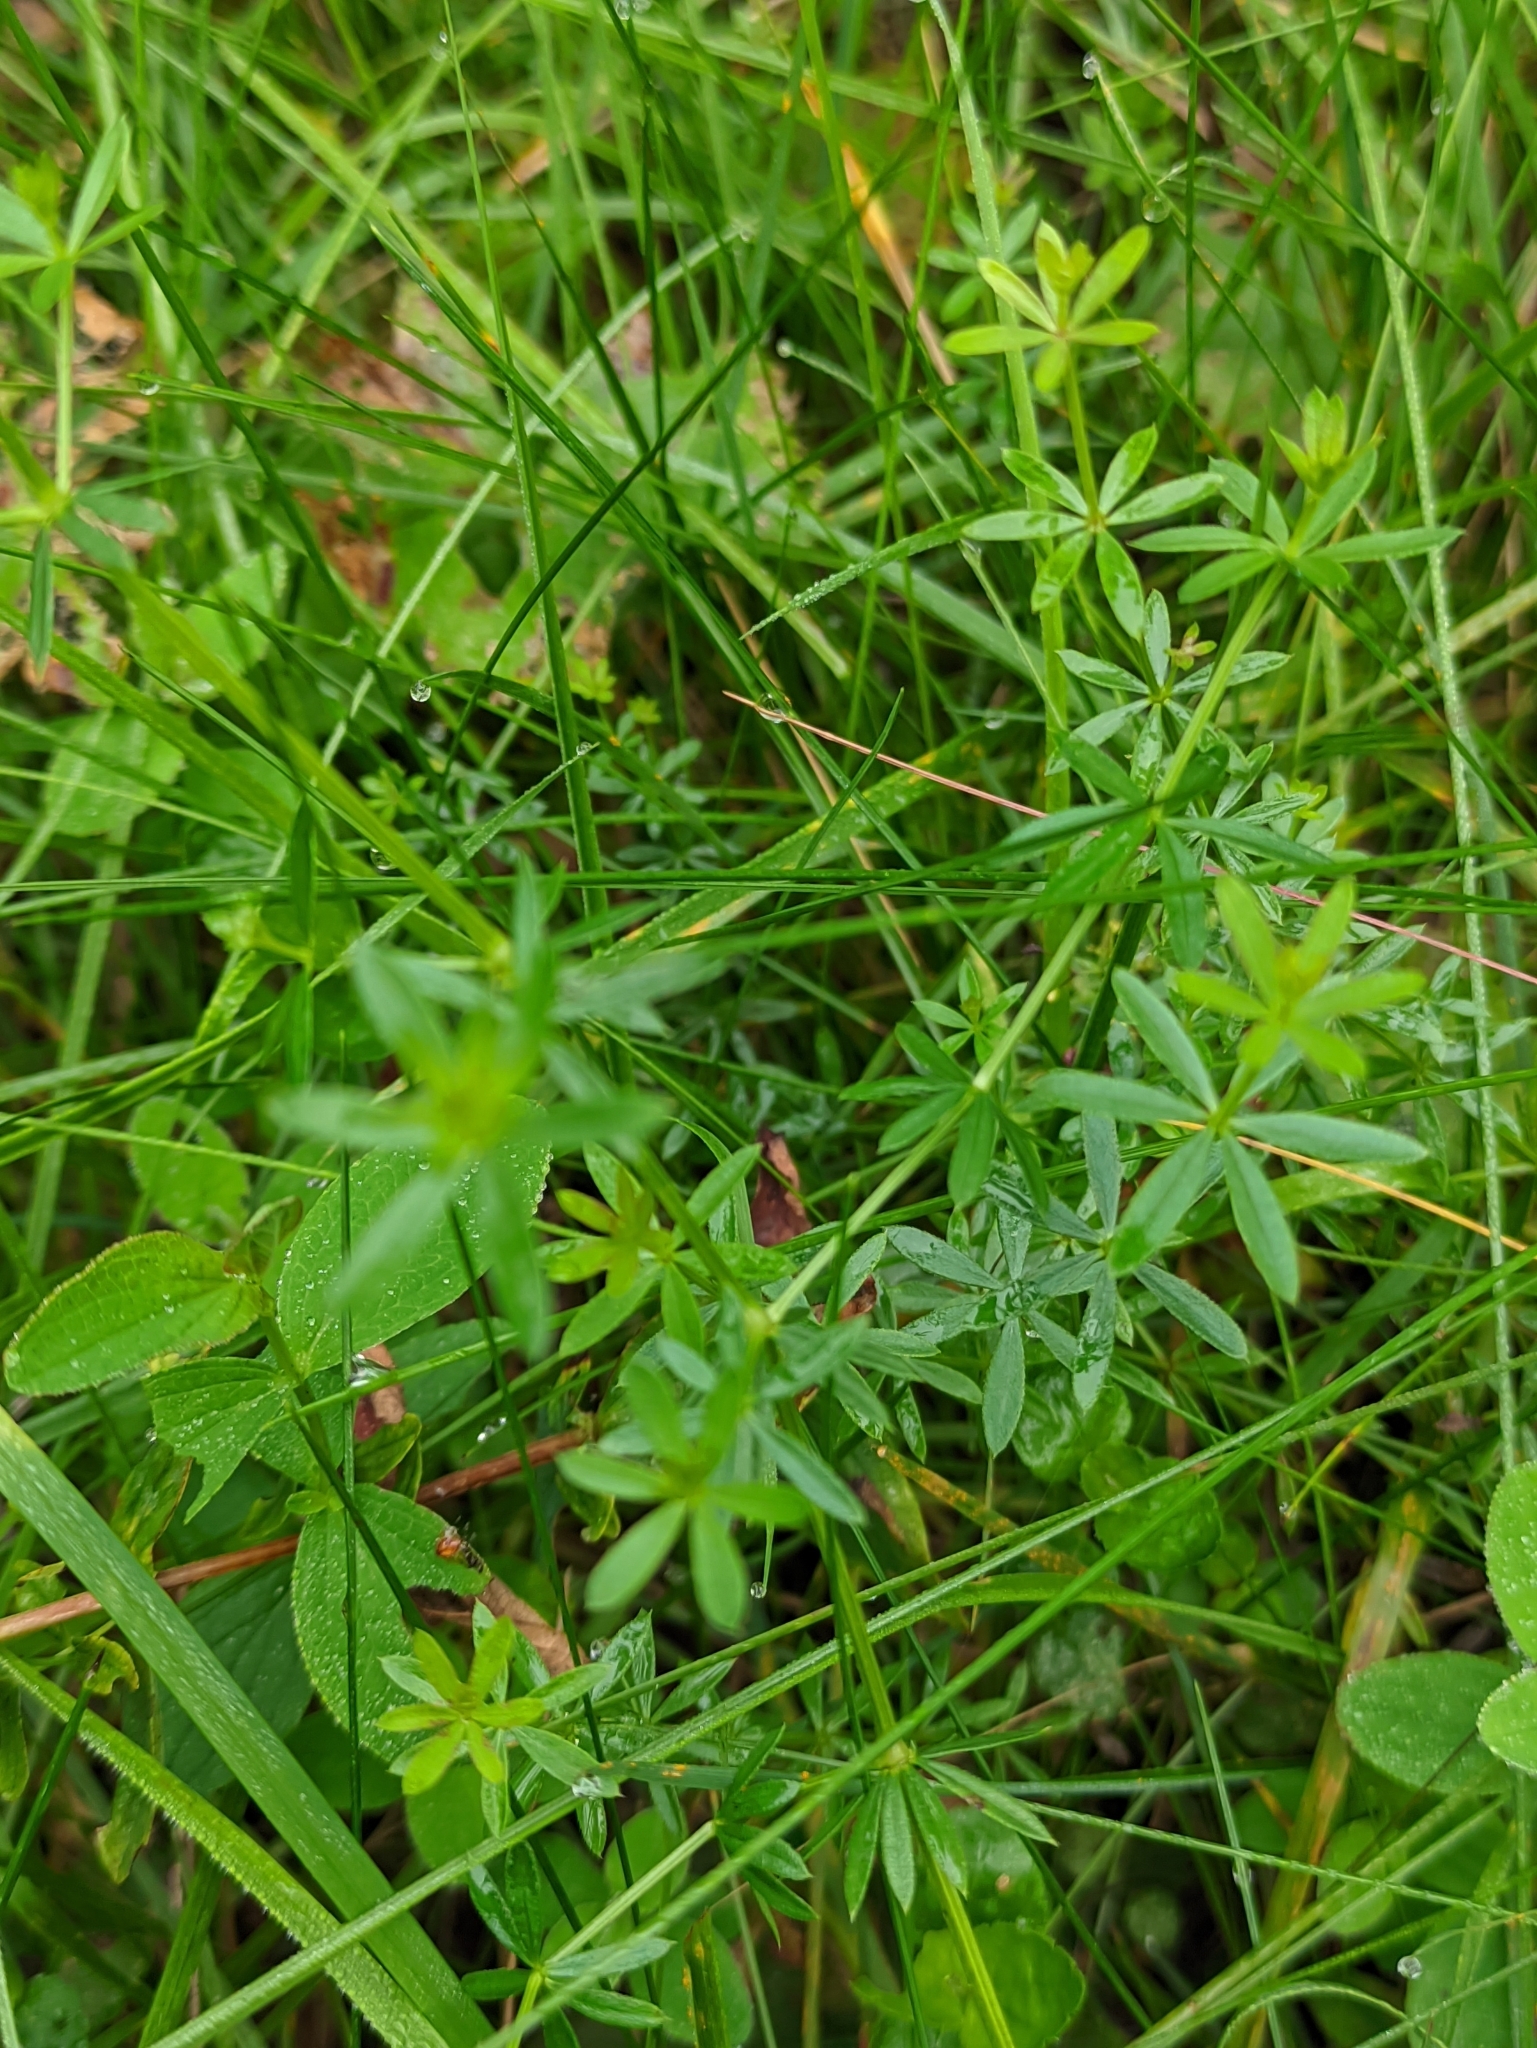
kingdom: Plantae
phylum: Tracheophyta
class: Magnoliopsida
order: Gentianales
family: Rubiaceae
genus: Galium
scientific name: Galium mollugo
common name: Hedge bedstraw
